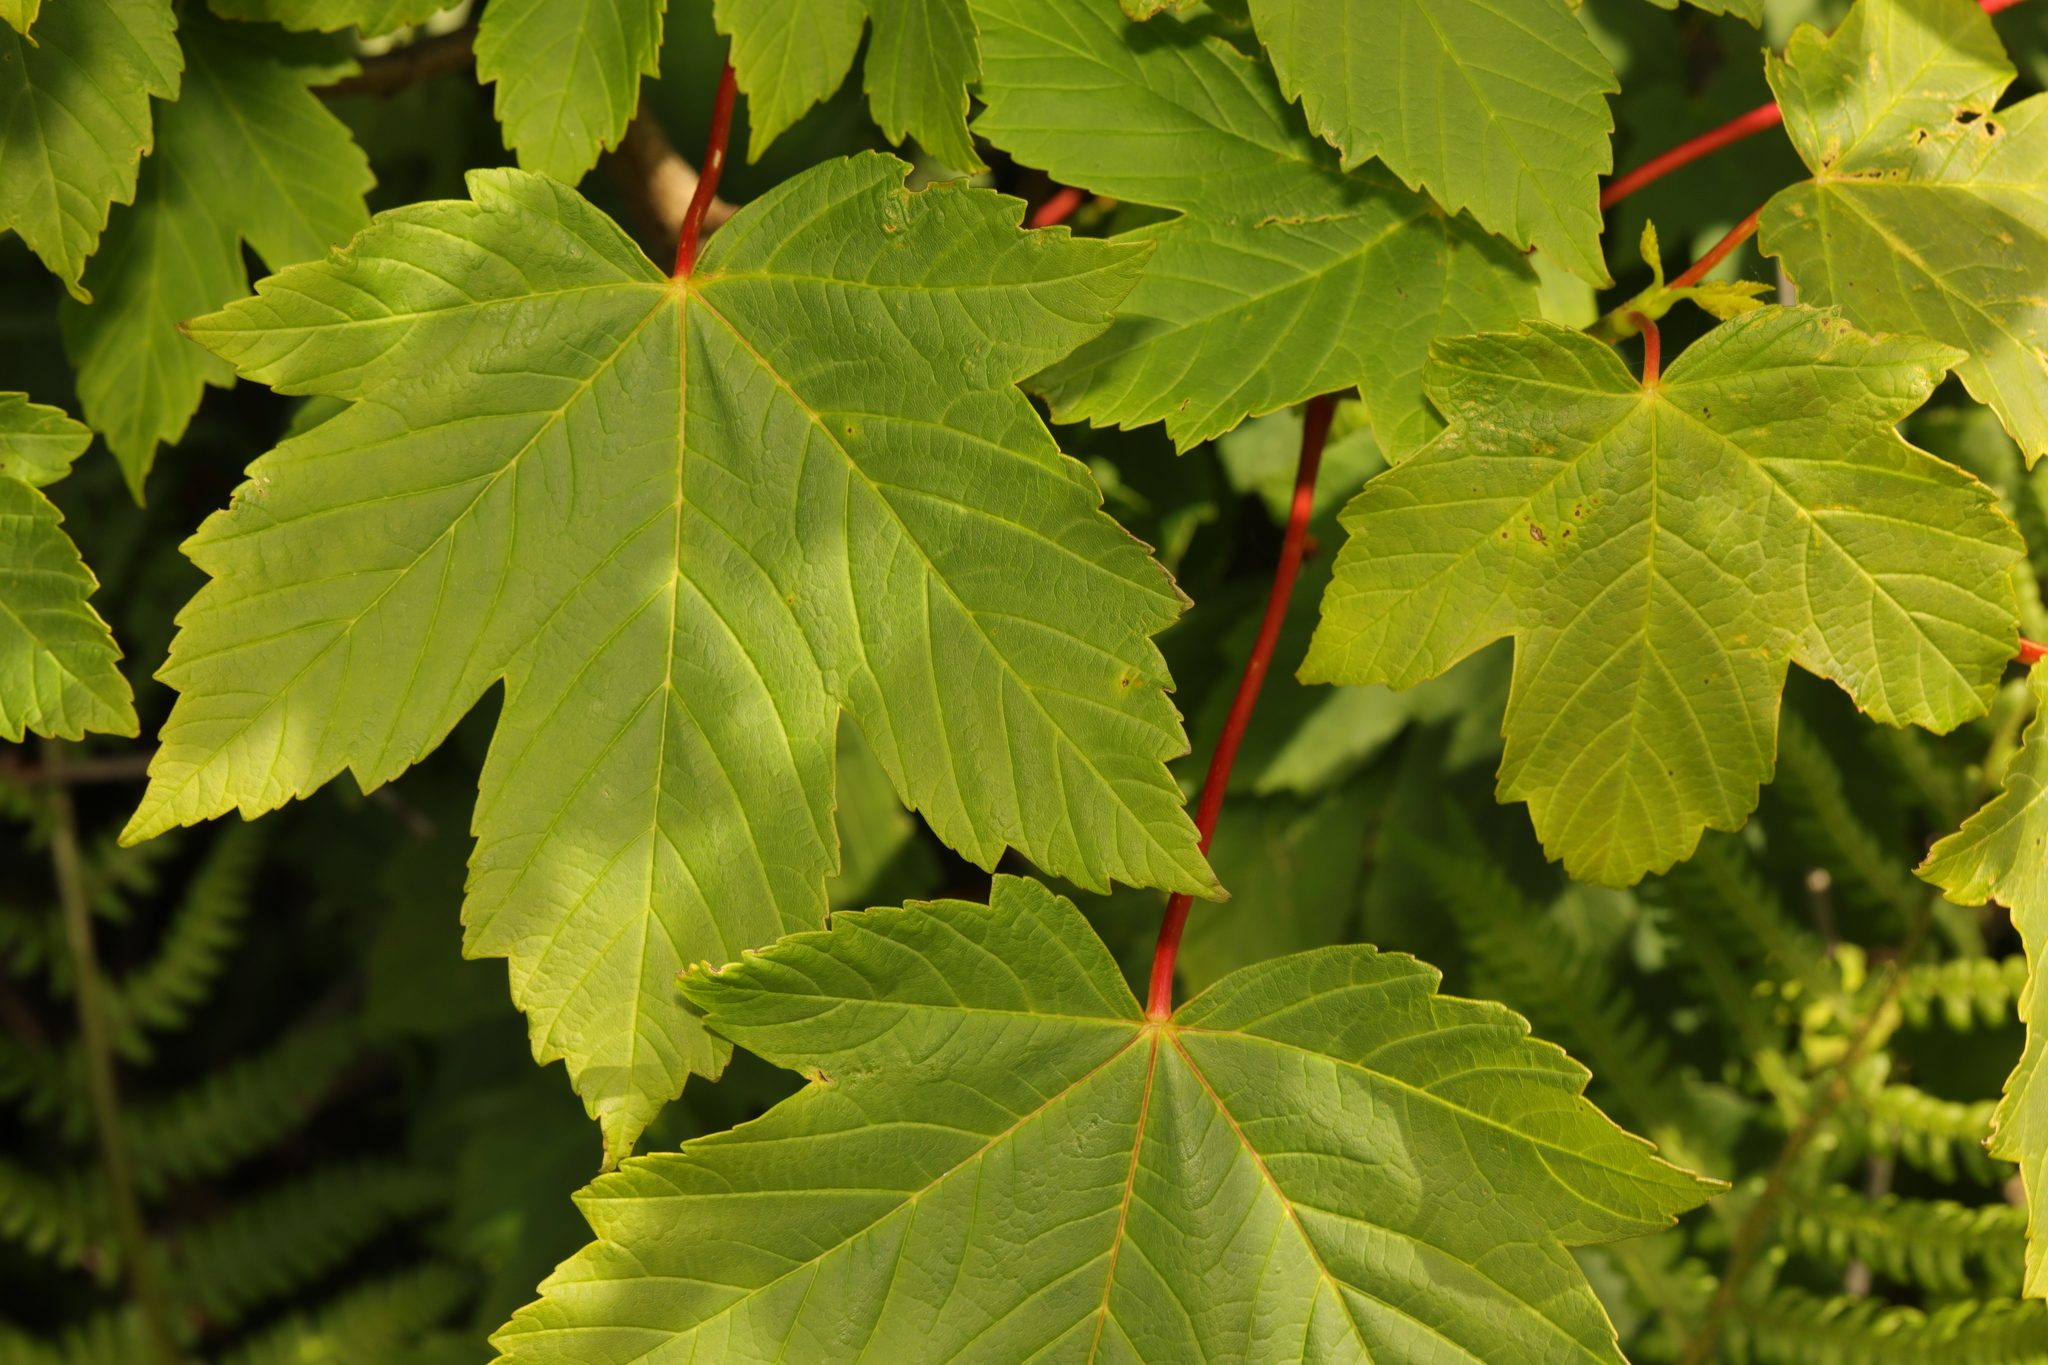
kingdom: Plantae
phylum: Tracheophyta
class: Magnoliopsida
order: Sapindales
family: Sapindaceae
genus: Acer
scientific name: Acer pseudoplatanus
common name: Sycamore
